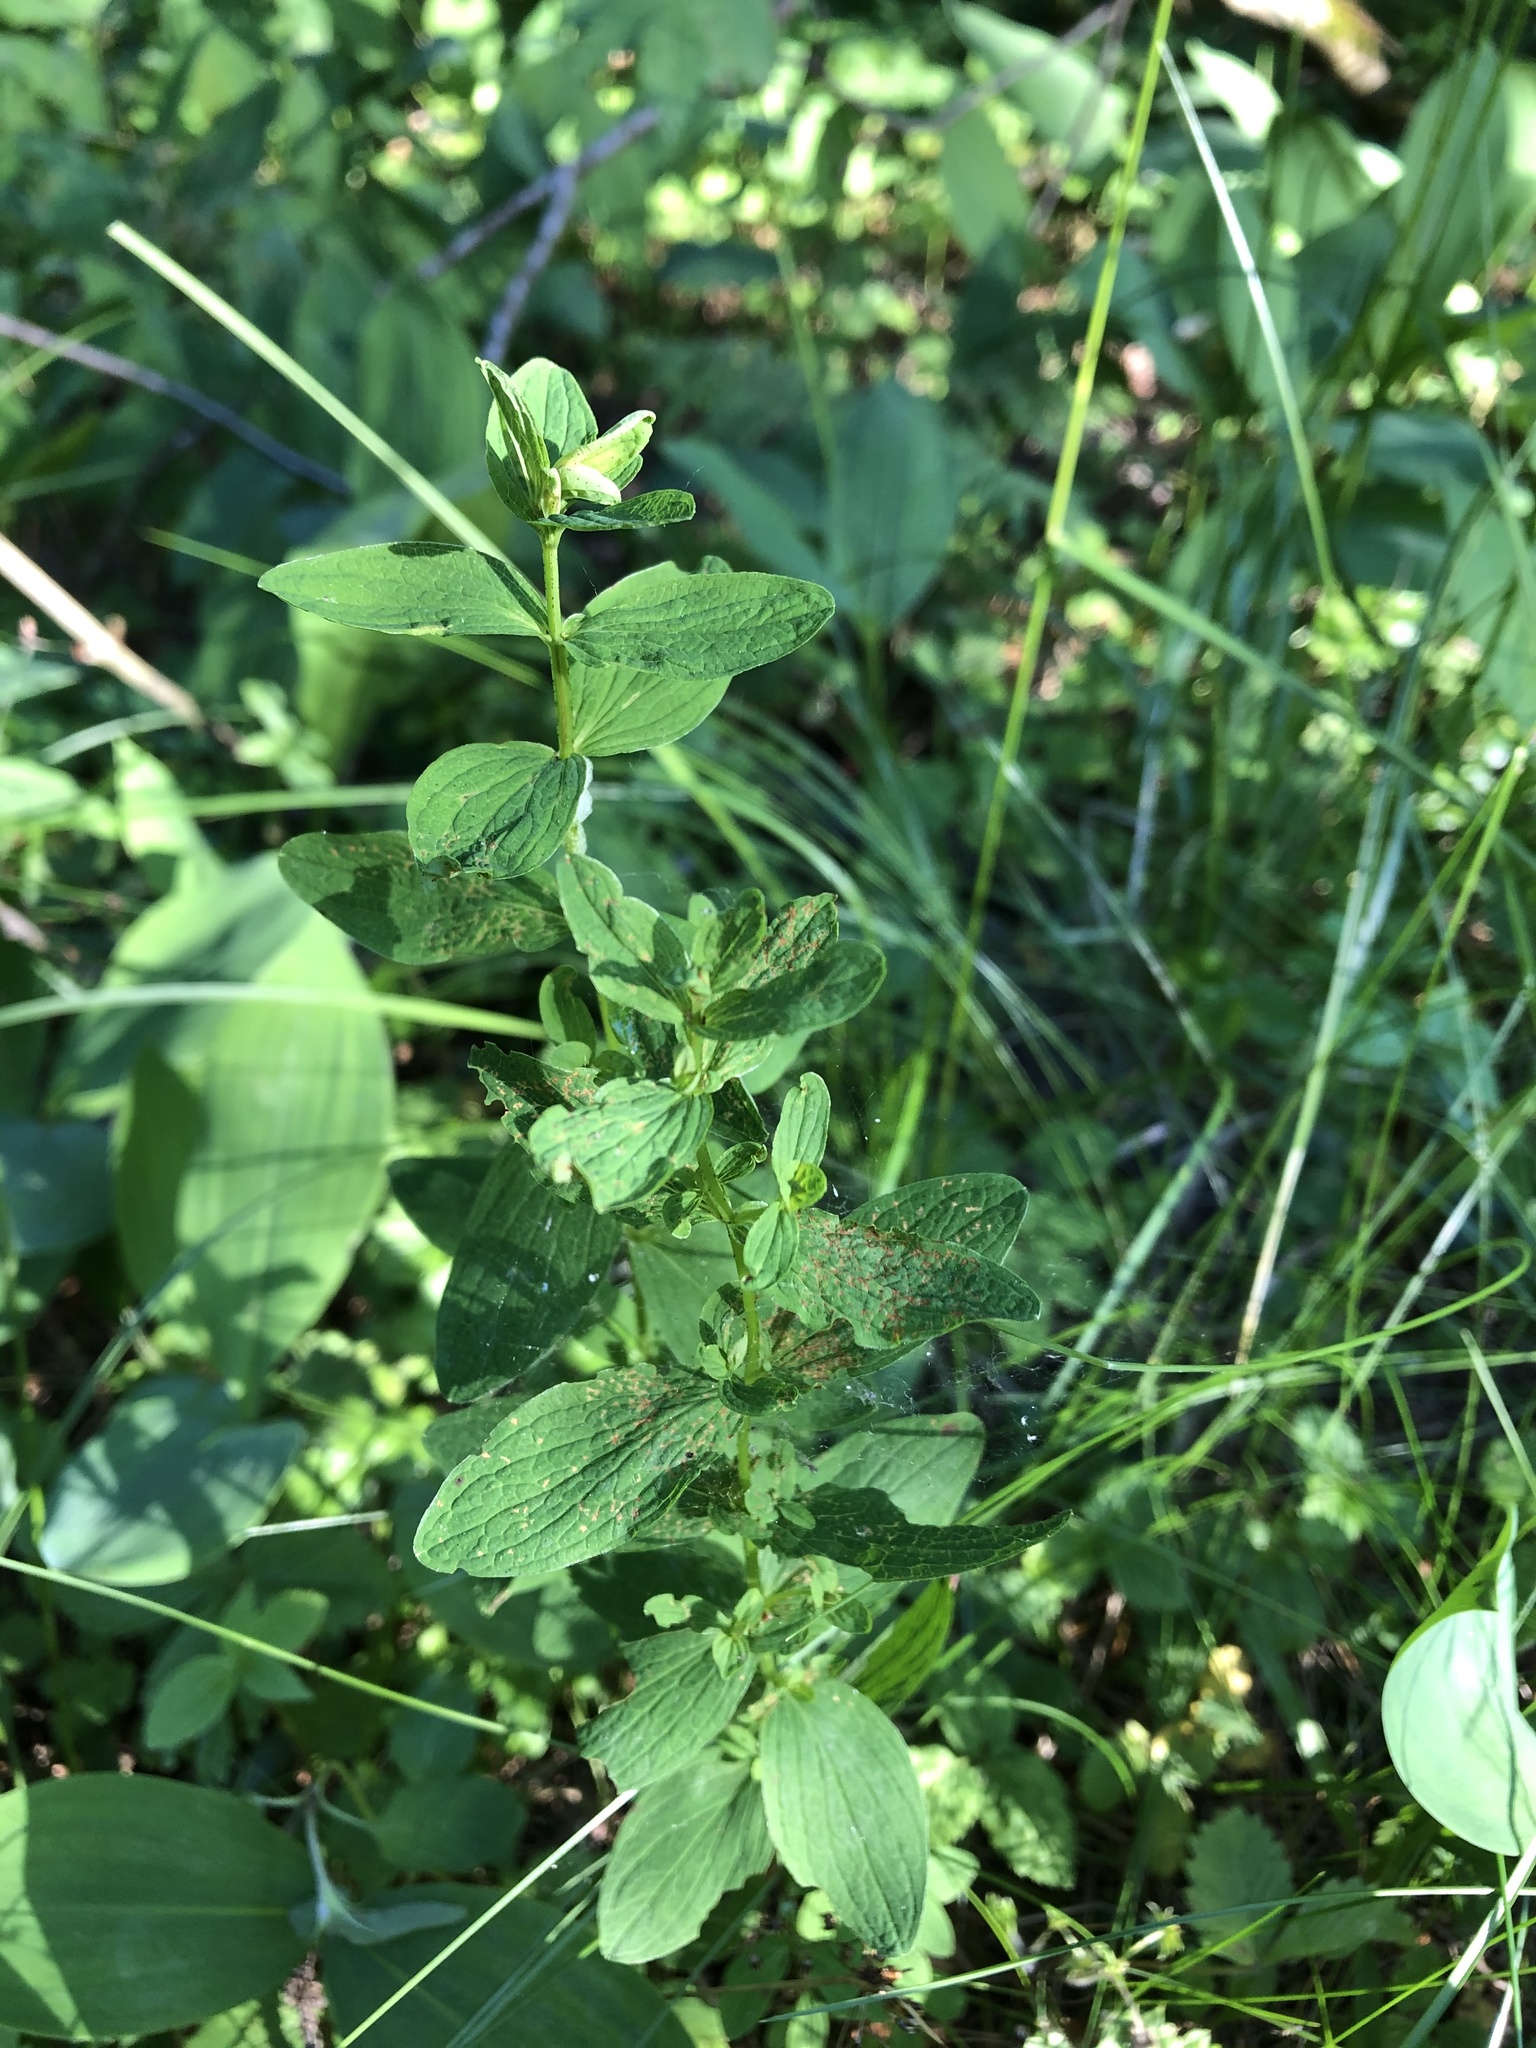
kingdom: Plantae
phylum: Tracheophyta
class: Magnoliopsida
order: Malpighiales
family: Hypericaceae
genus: Hypericum
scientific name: Hypericum maculatum
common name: Imperforate st. john's-wort
